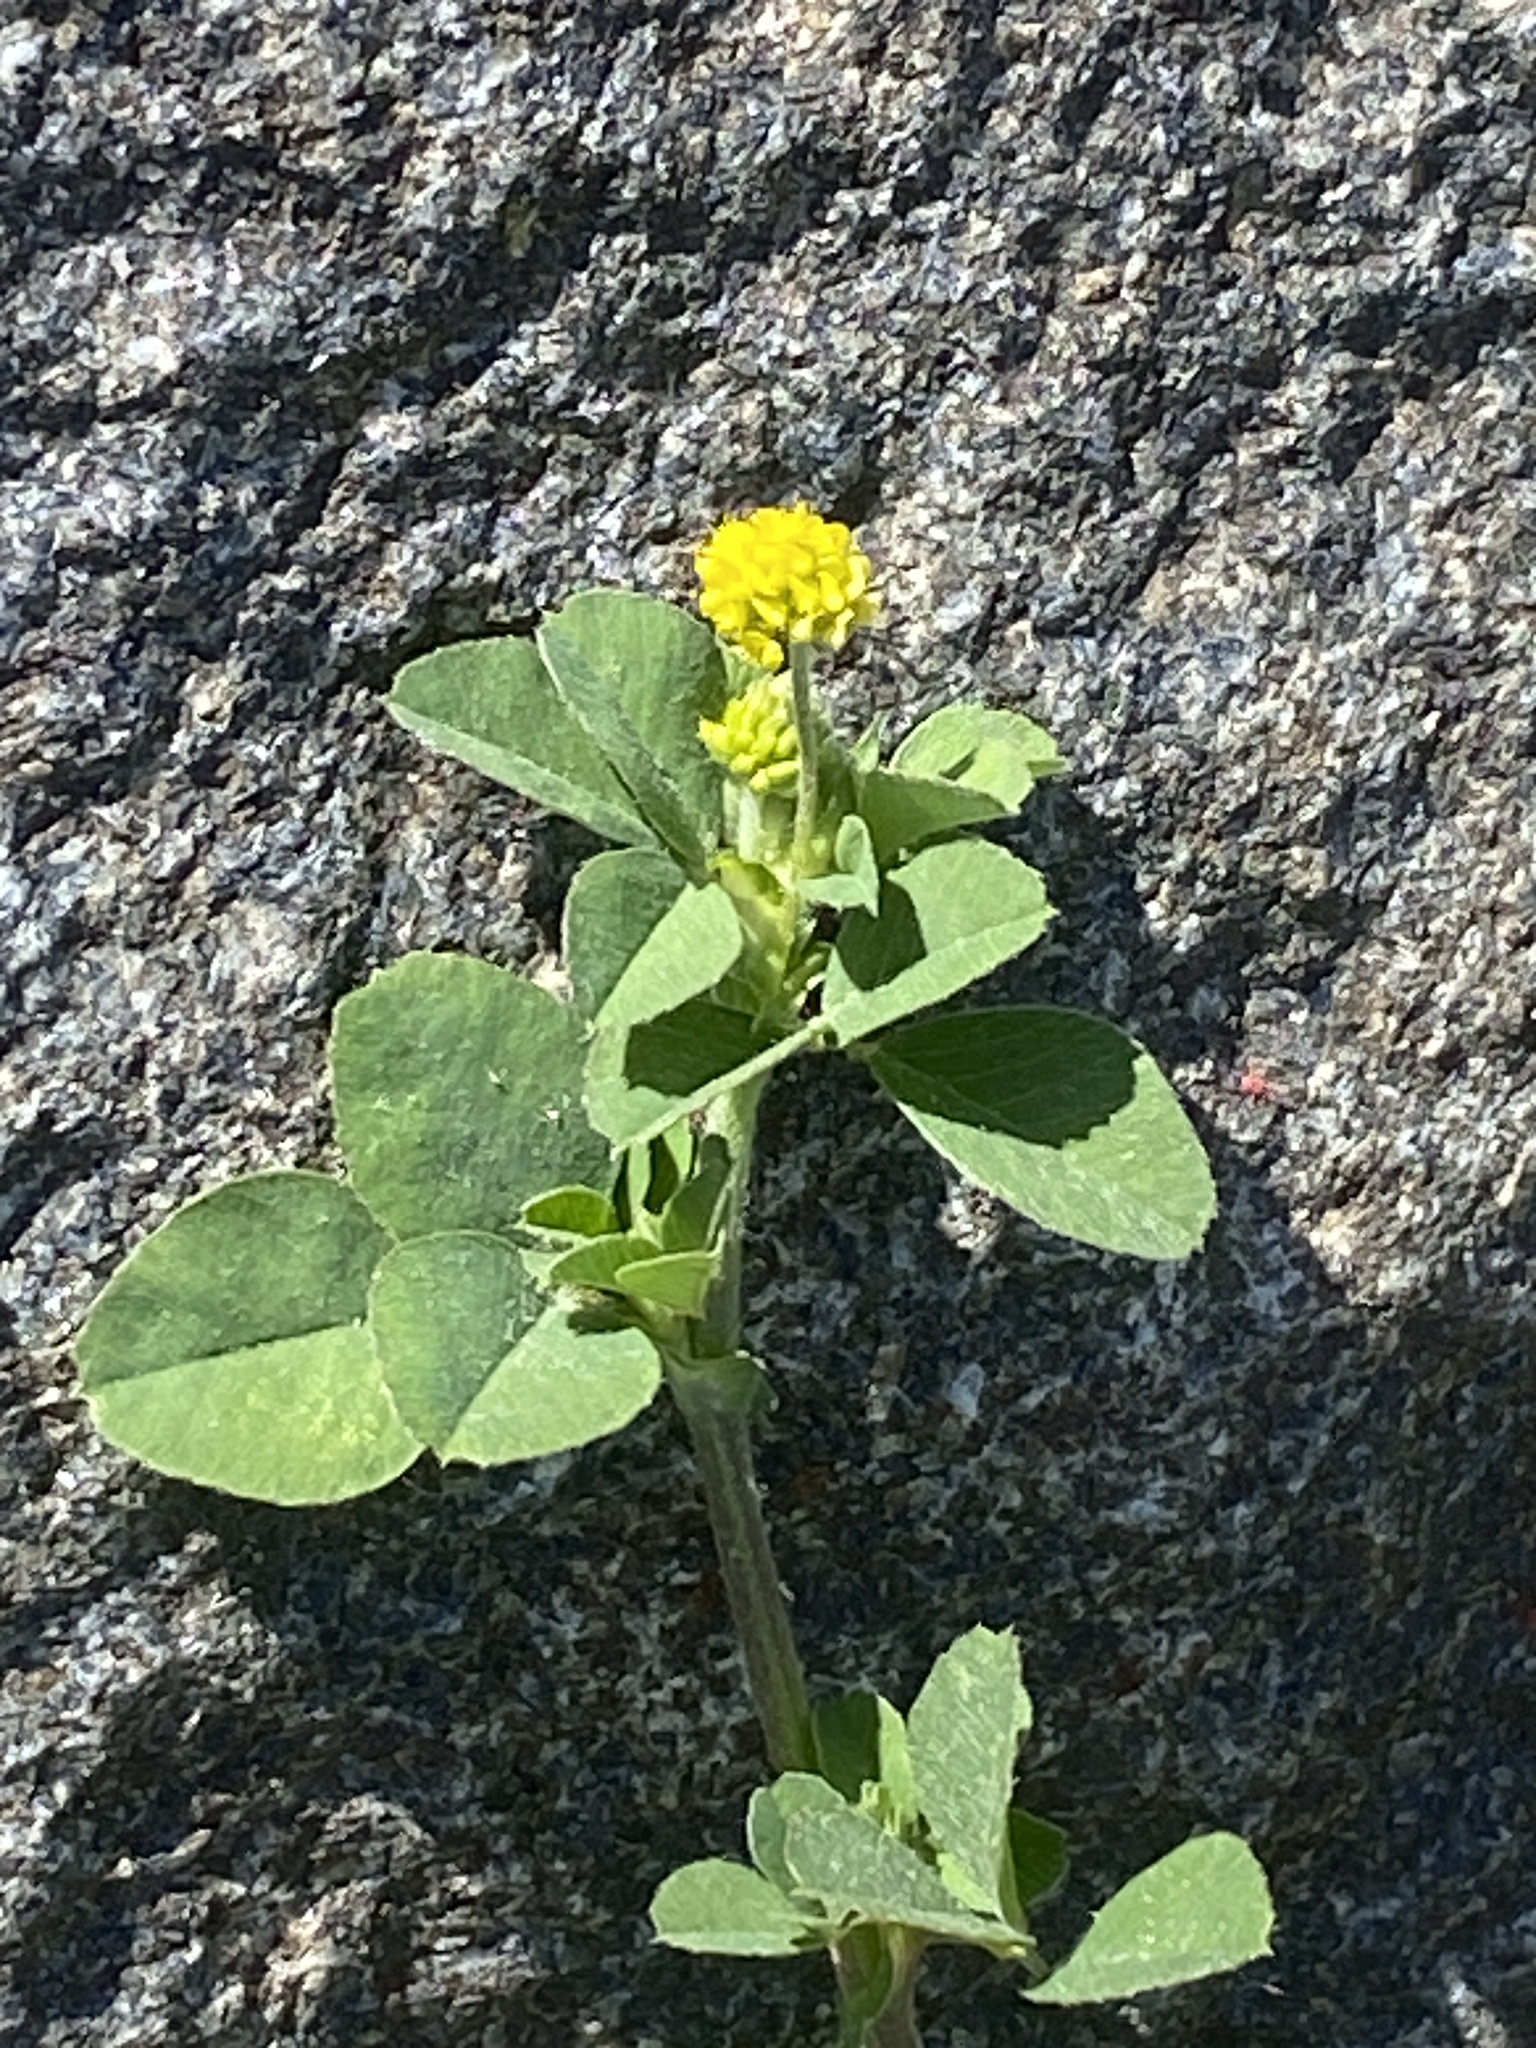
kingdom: Plantae
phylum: Tracheophyta
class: Magnoliopsida
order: Fabales
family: Fabaceae
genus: Medicago
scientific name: Medicago lupulina
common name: Black medick
